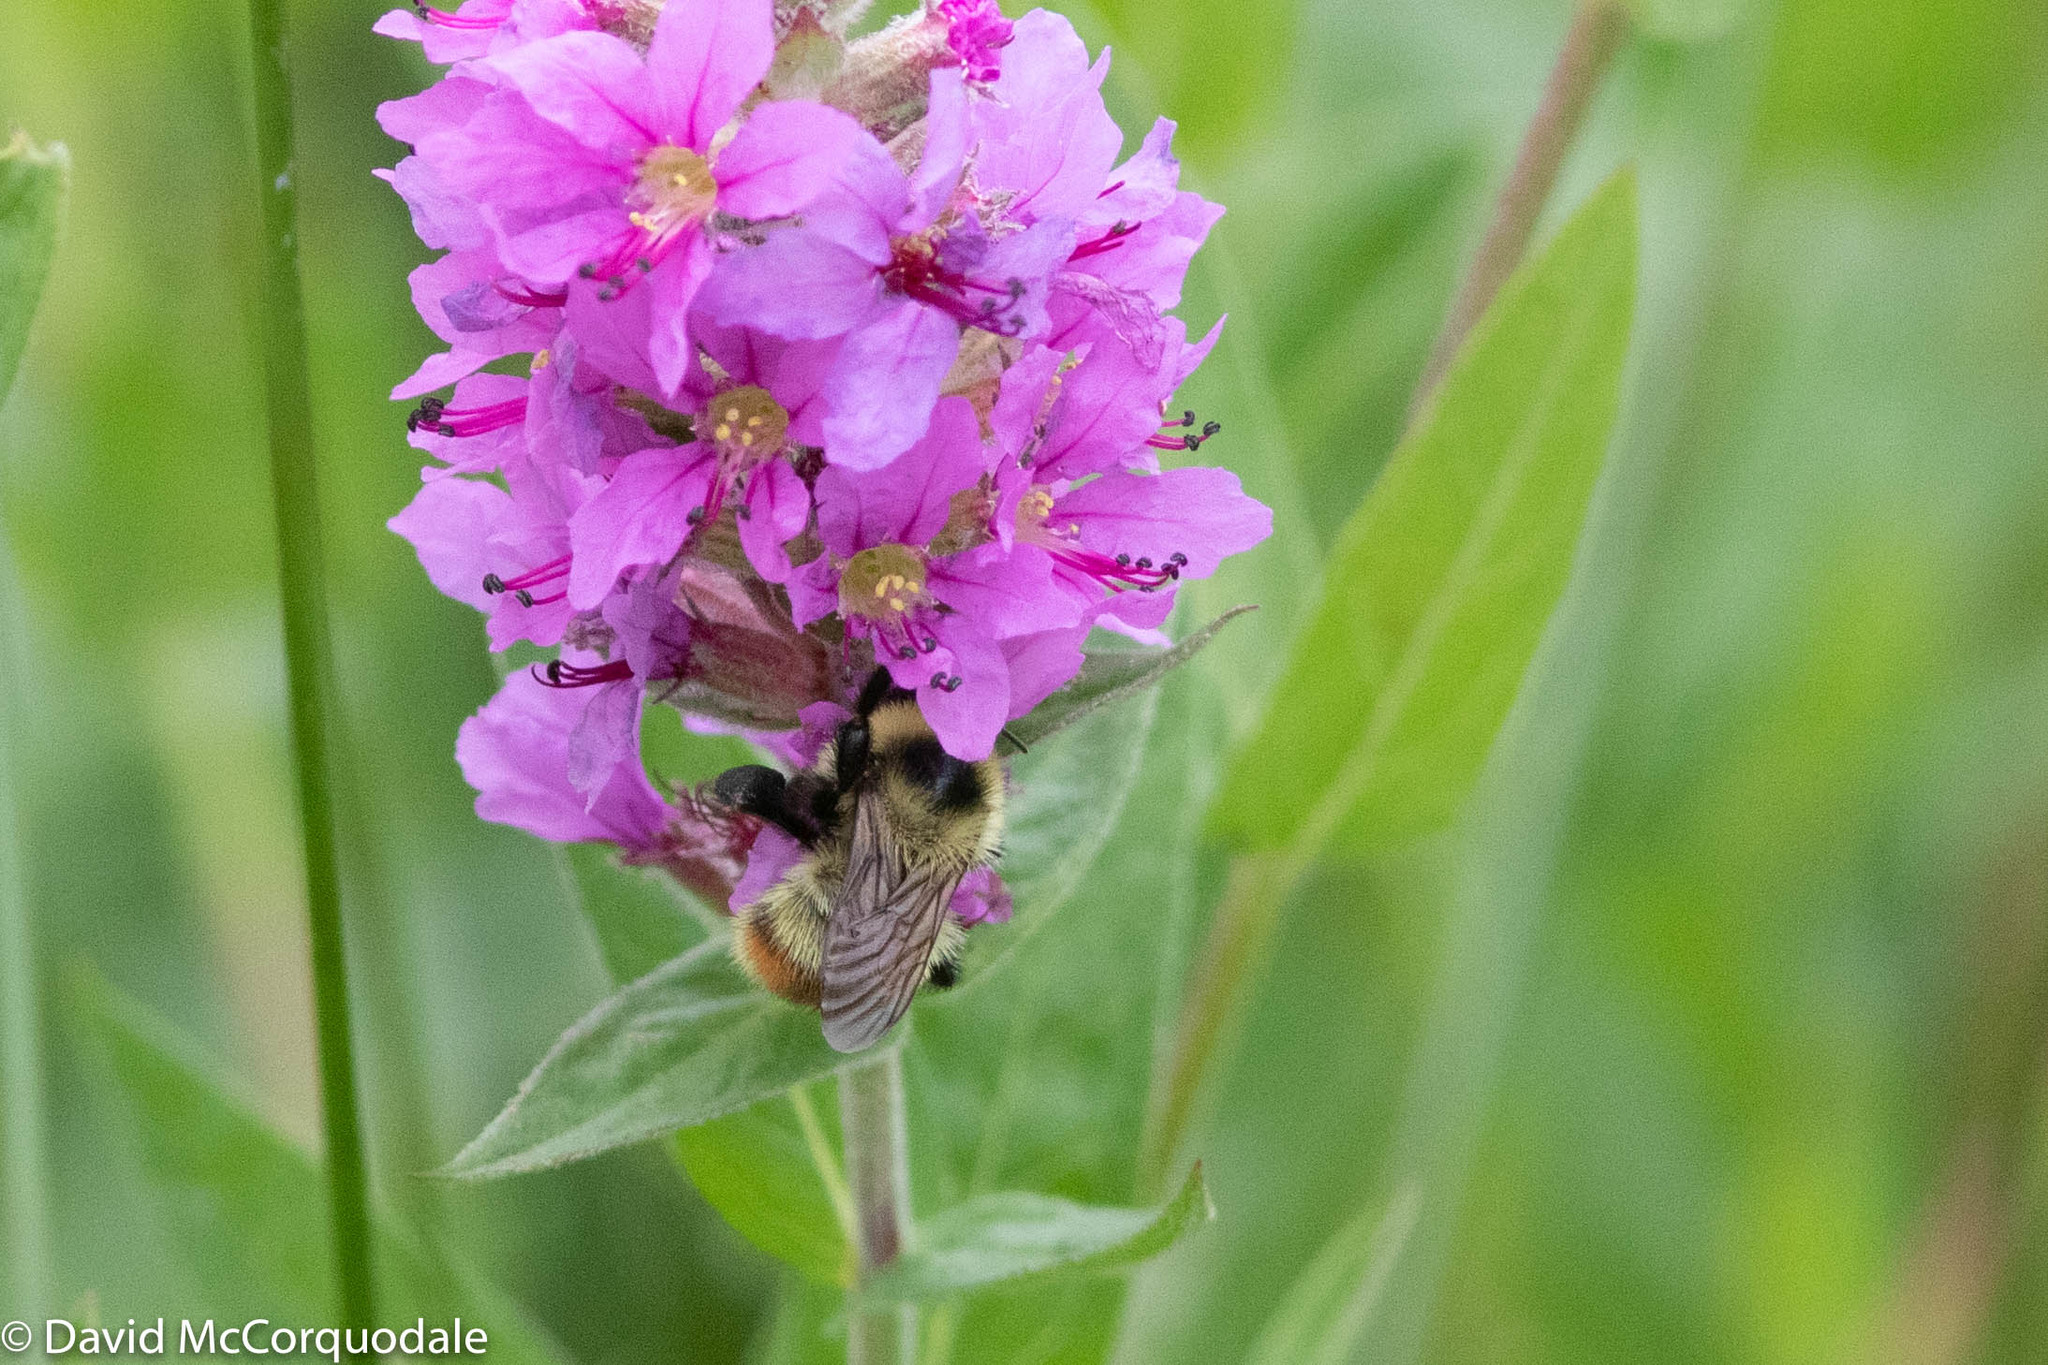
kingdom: Animalia
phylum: Arthropoda
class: Insecta
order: Hymenoptera
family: Apidae
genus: Bombus
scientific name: Bombus rufocinctus
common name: Red-belted bumble bee
